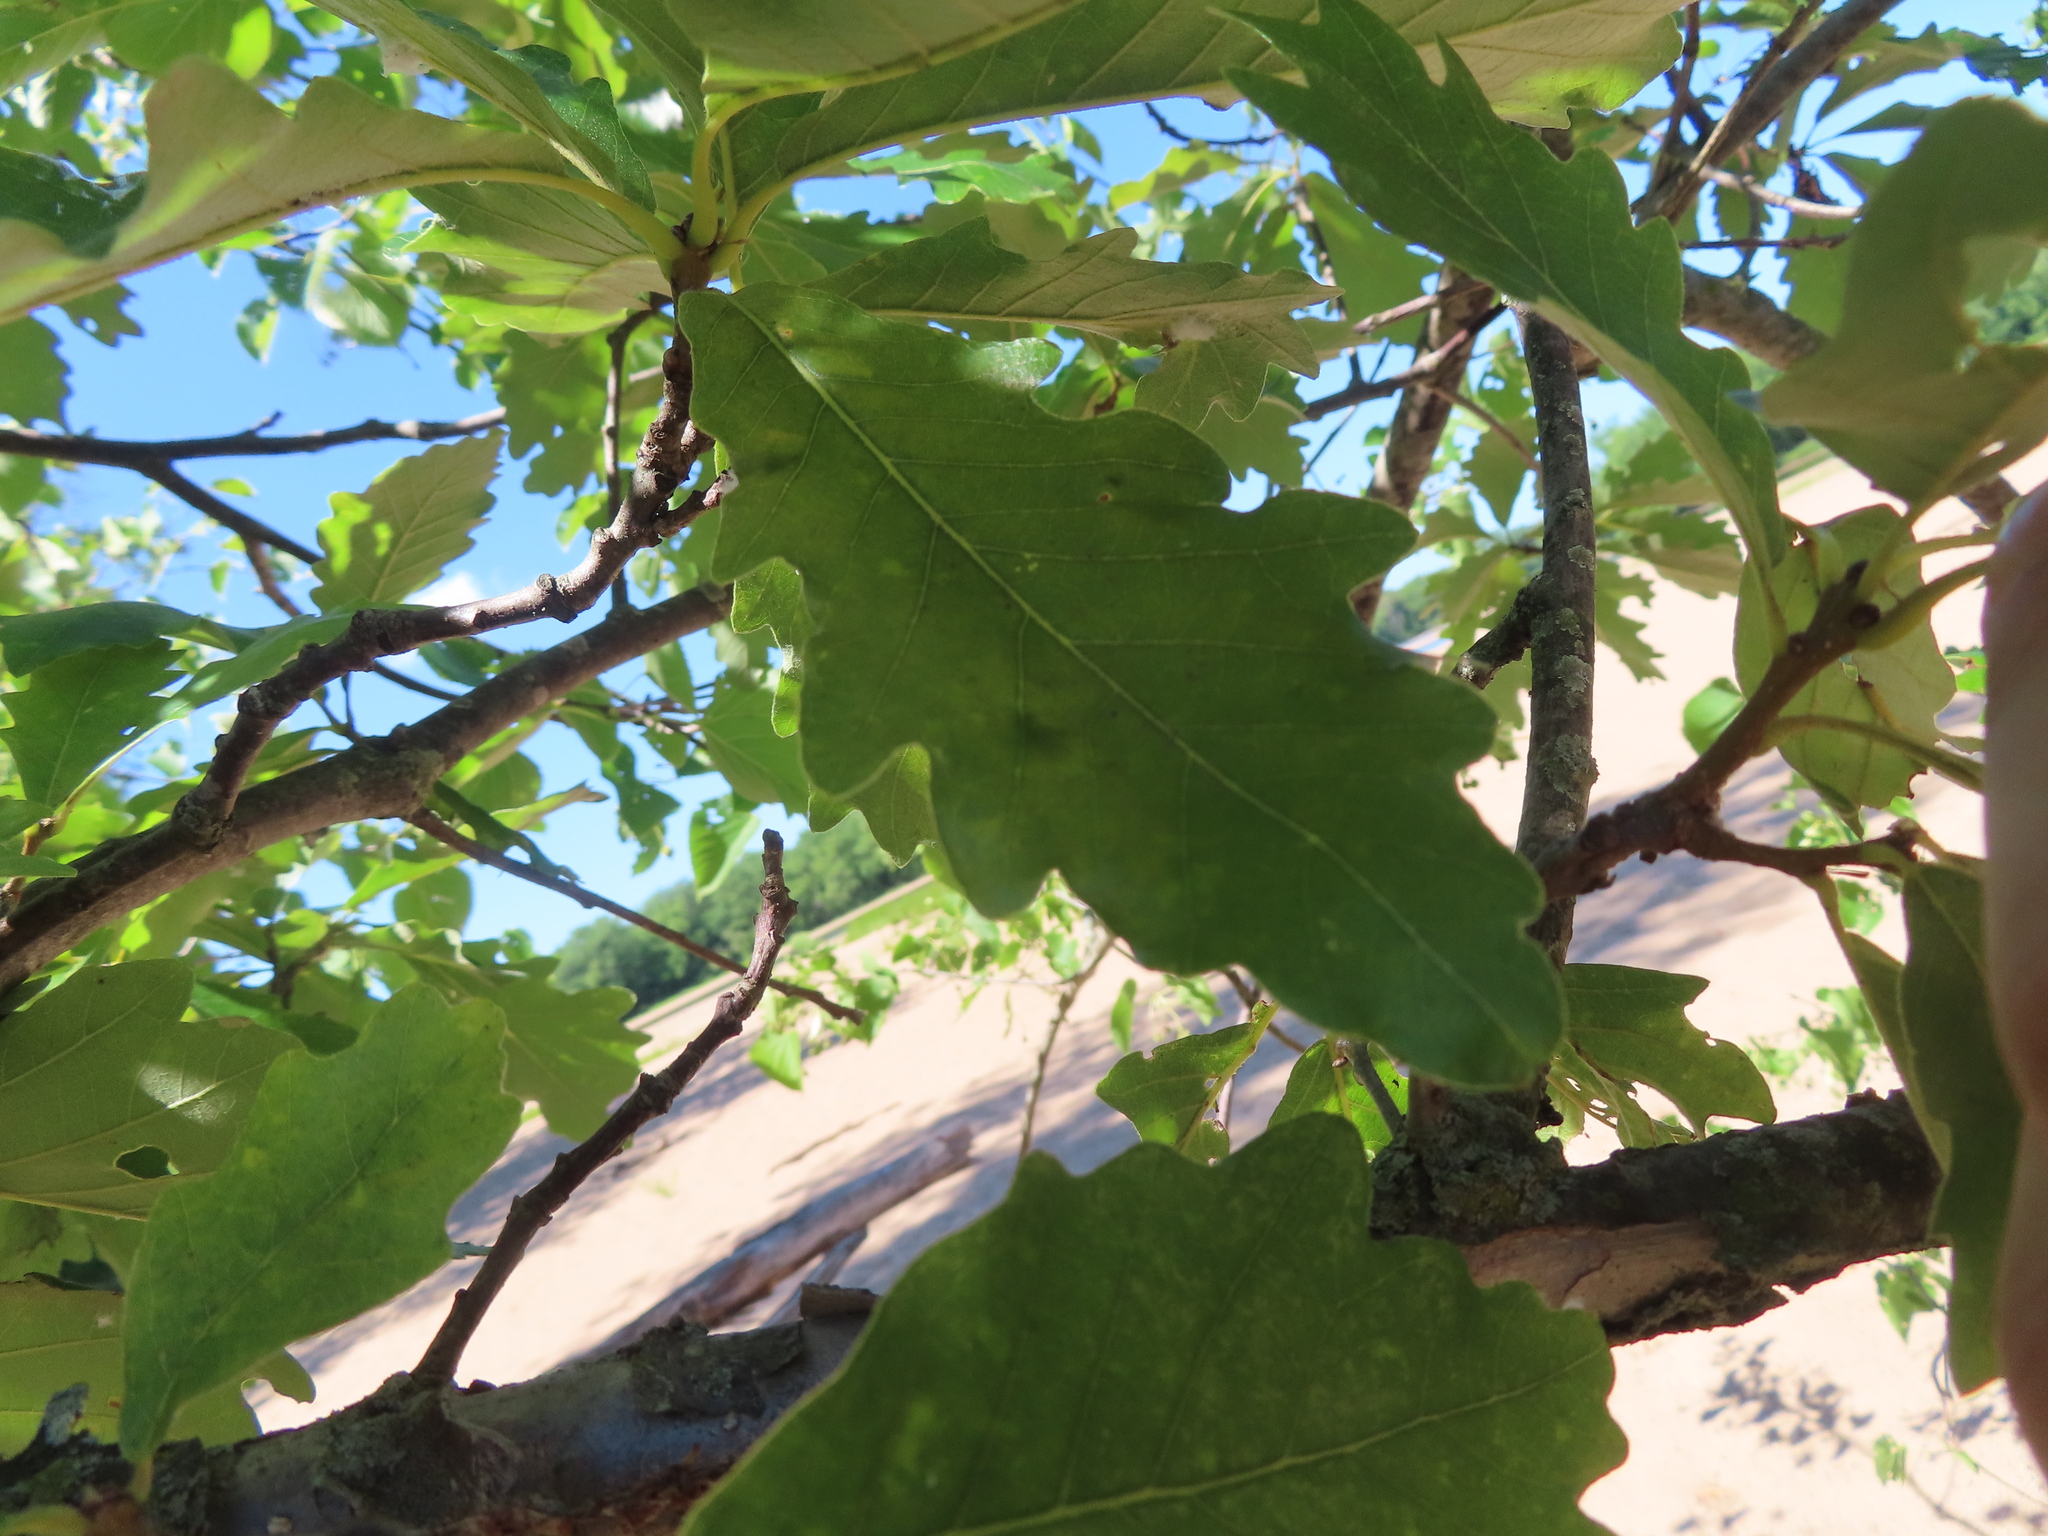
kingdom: Plantae
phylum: Tracheophyta
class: Magnoliopsida
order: Fagales
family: Fagaceae
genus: Quercus
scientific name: Quercus bicolor
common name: Swamp white oak
